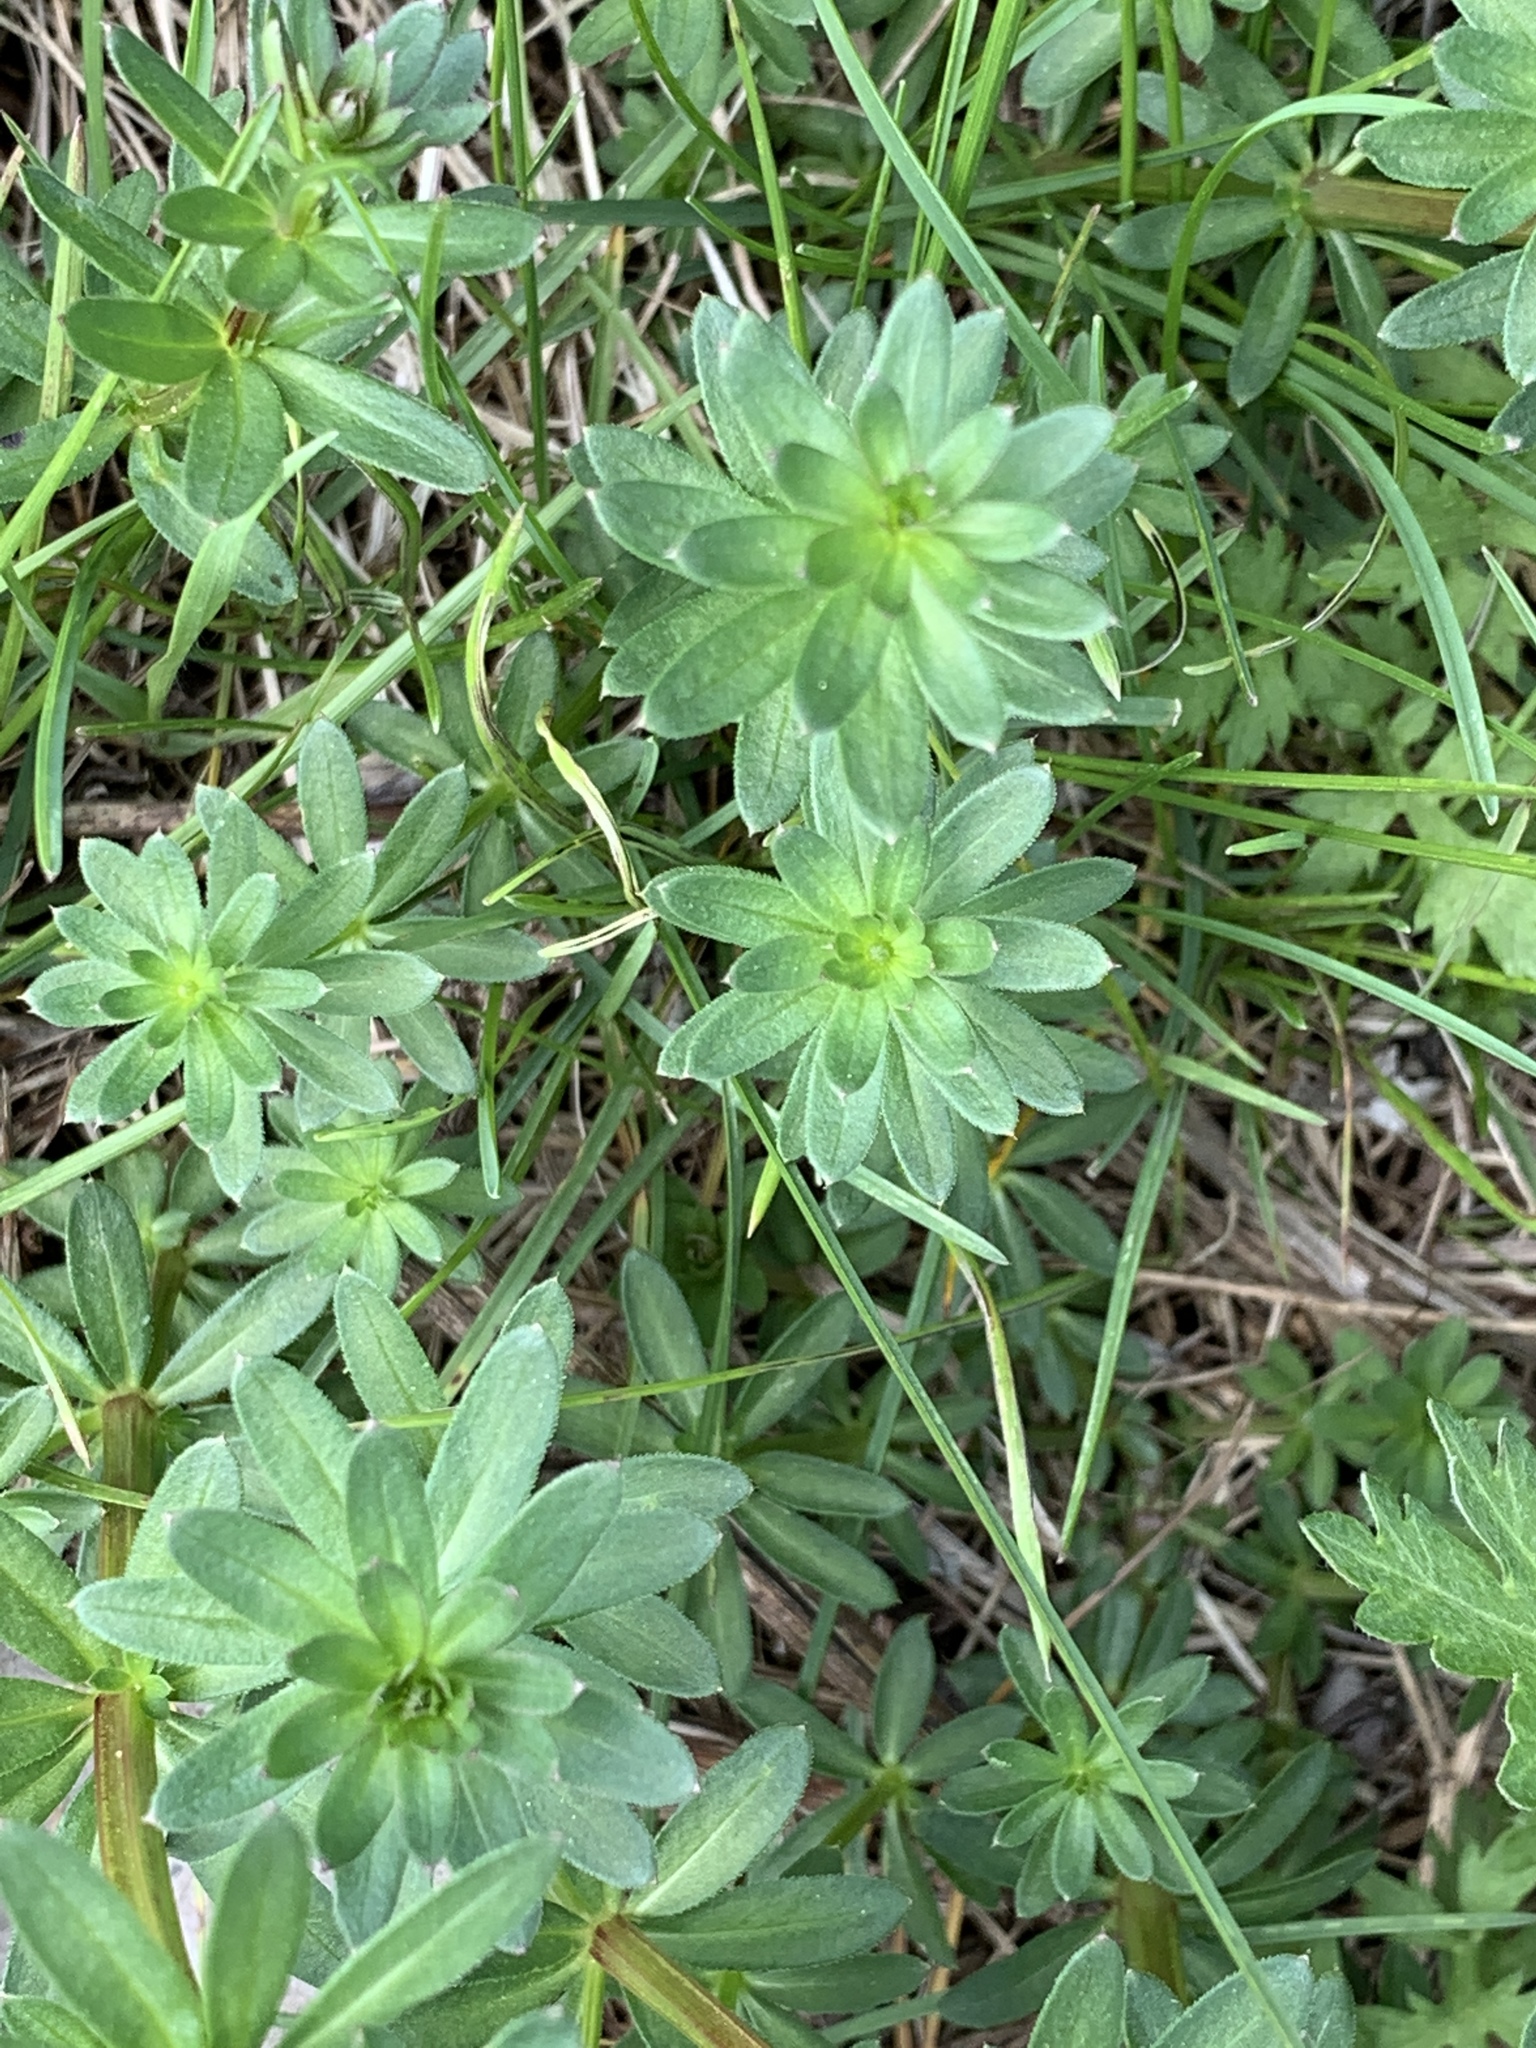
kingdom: Plantae
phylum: Tracheophyta
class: Magnoliopsida
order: Gentianales
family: Rubiaceae
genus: Galium
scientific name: Galium mollugo
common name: Hedge bedstraw
